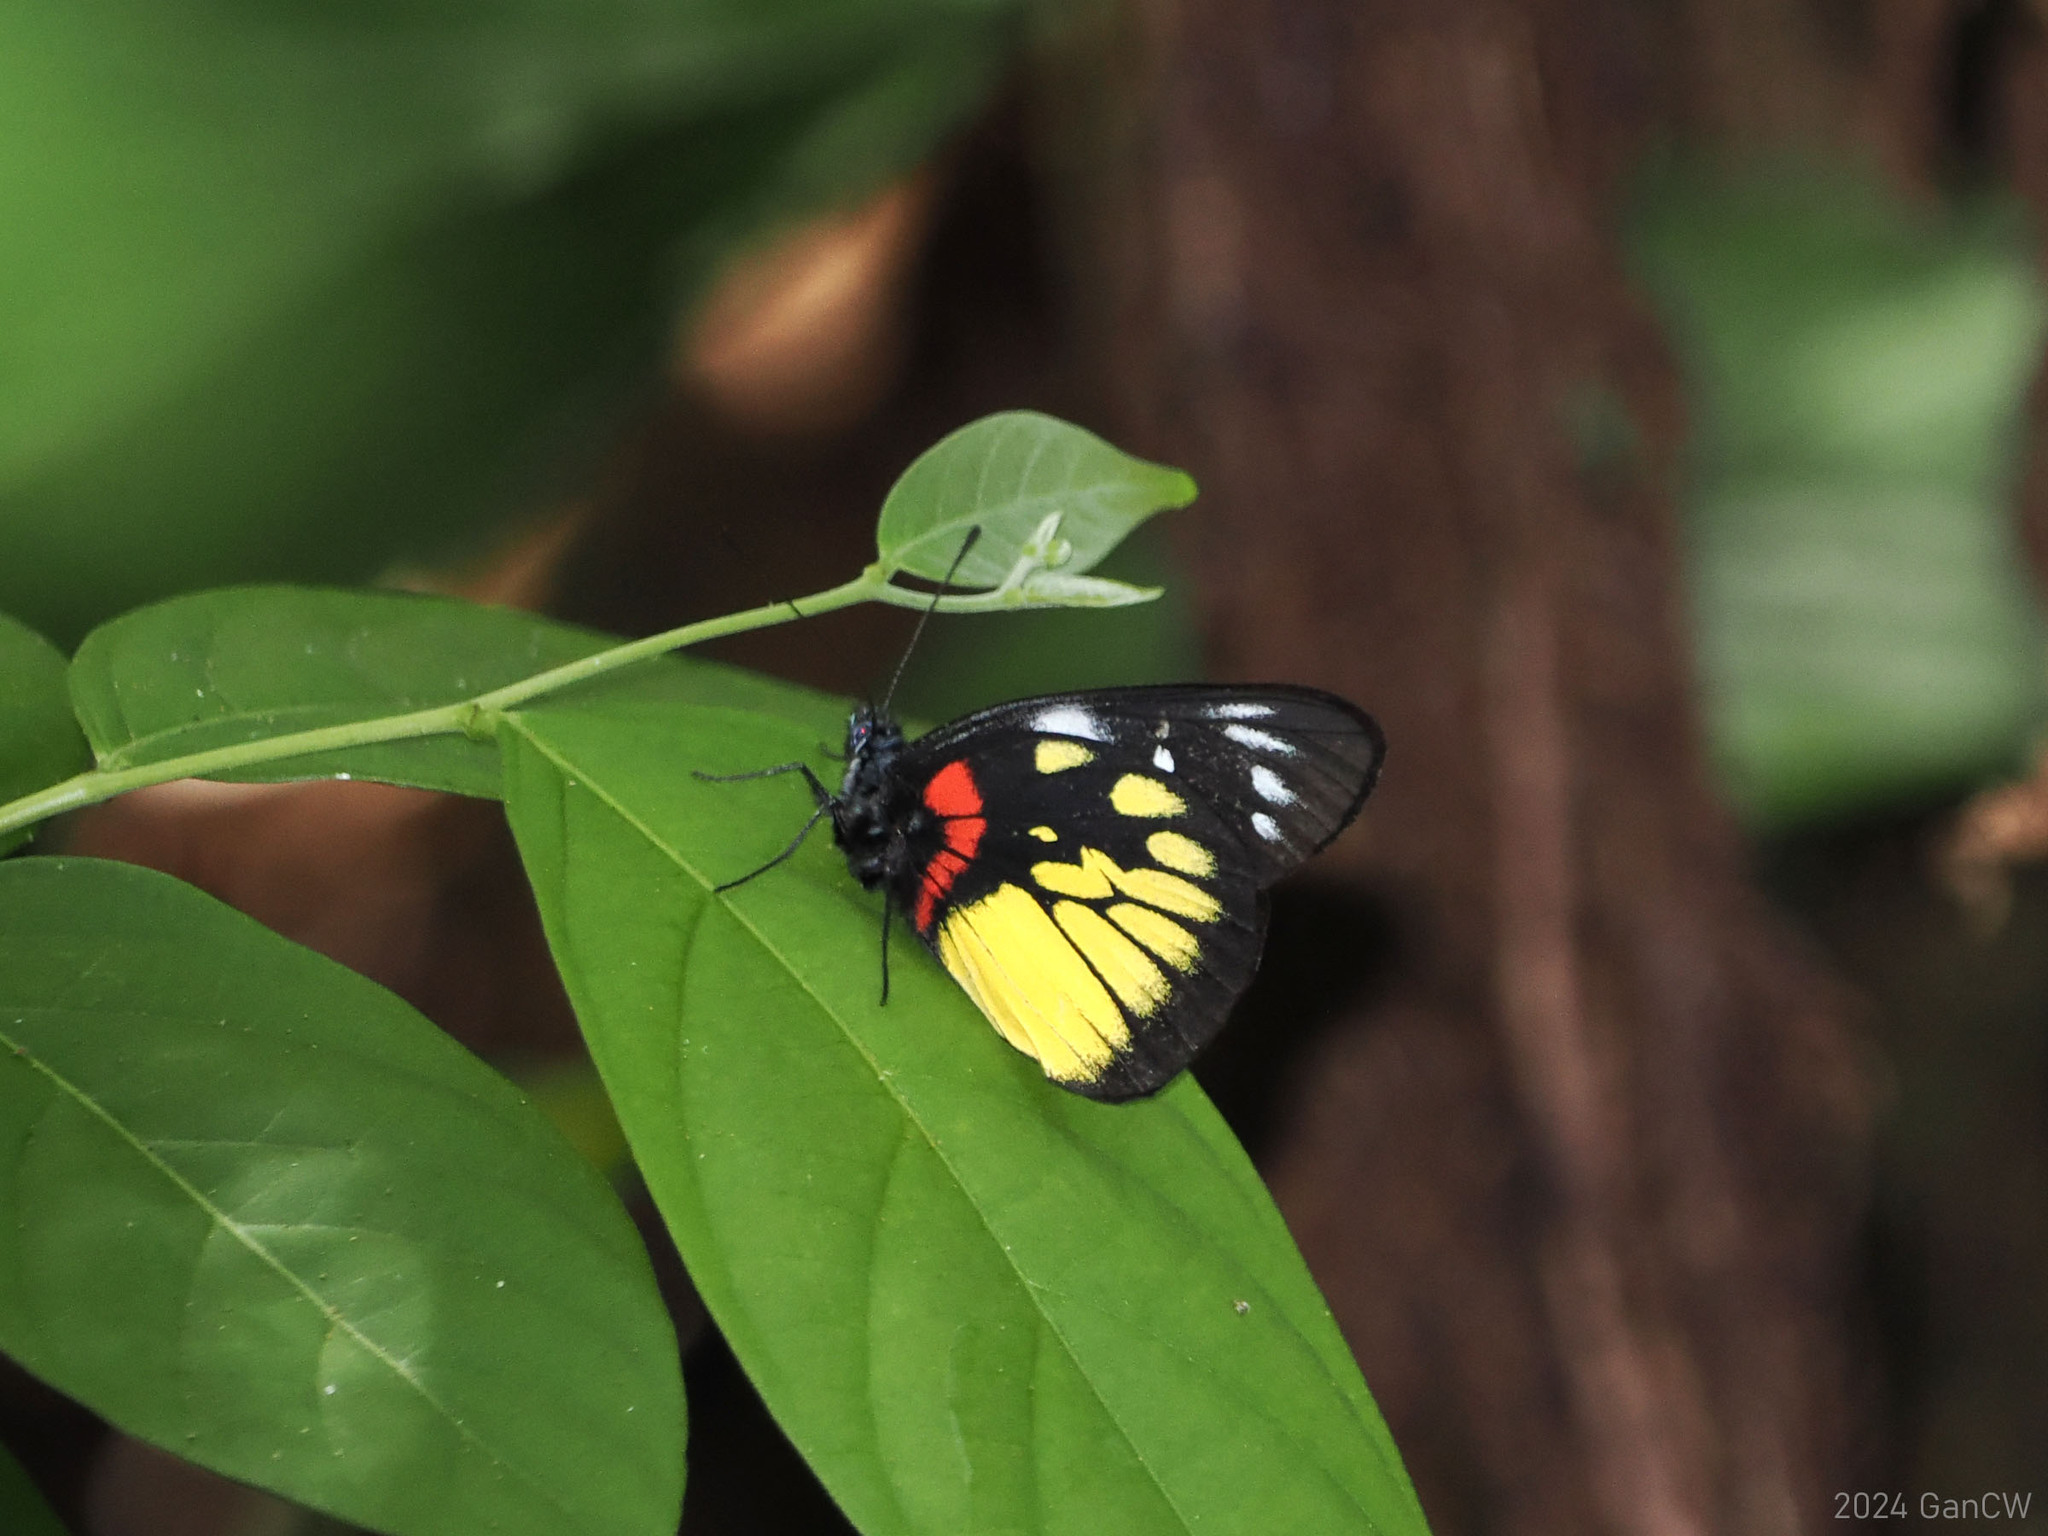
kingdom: Animalia
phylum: Arthropoda
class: Insecta
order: Lepidoptera
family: Pieridae
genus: Delias
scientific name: Delias henningia
